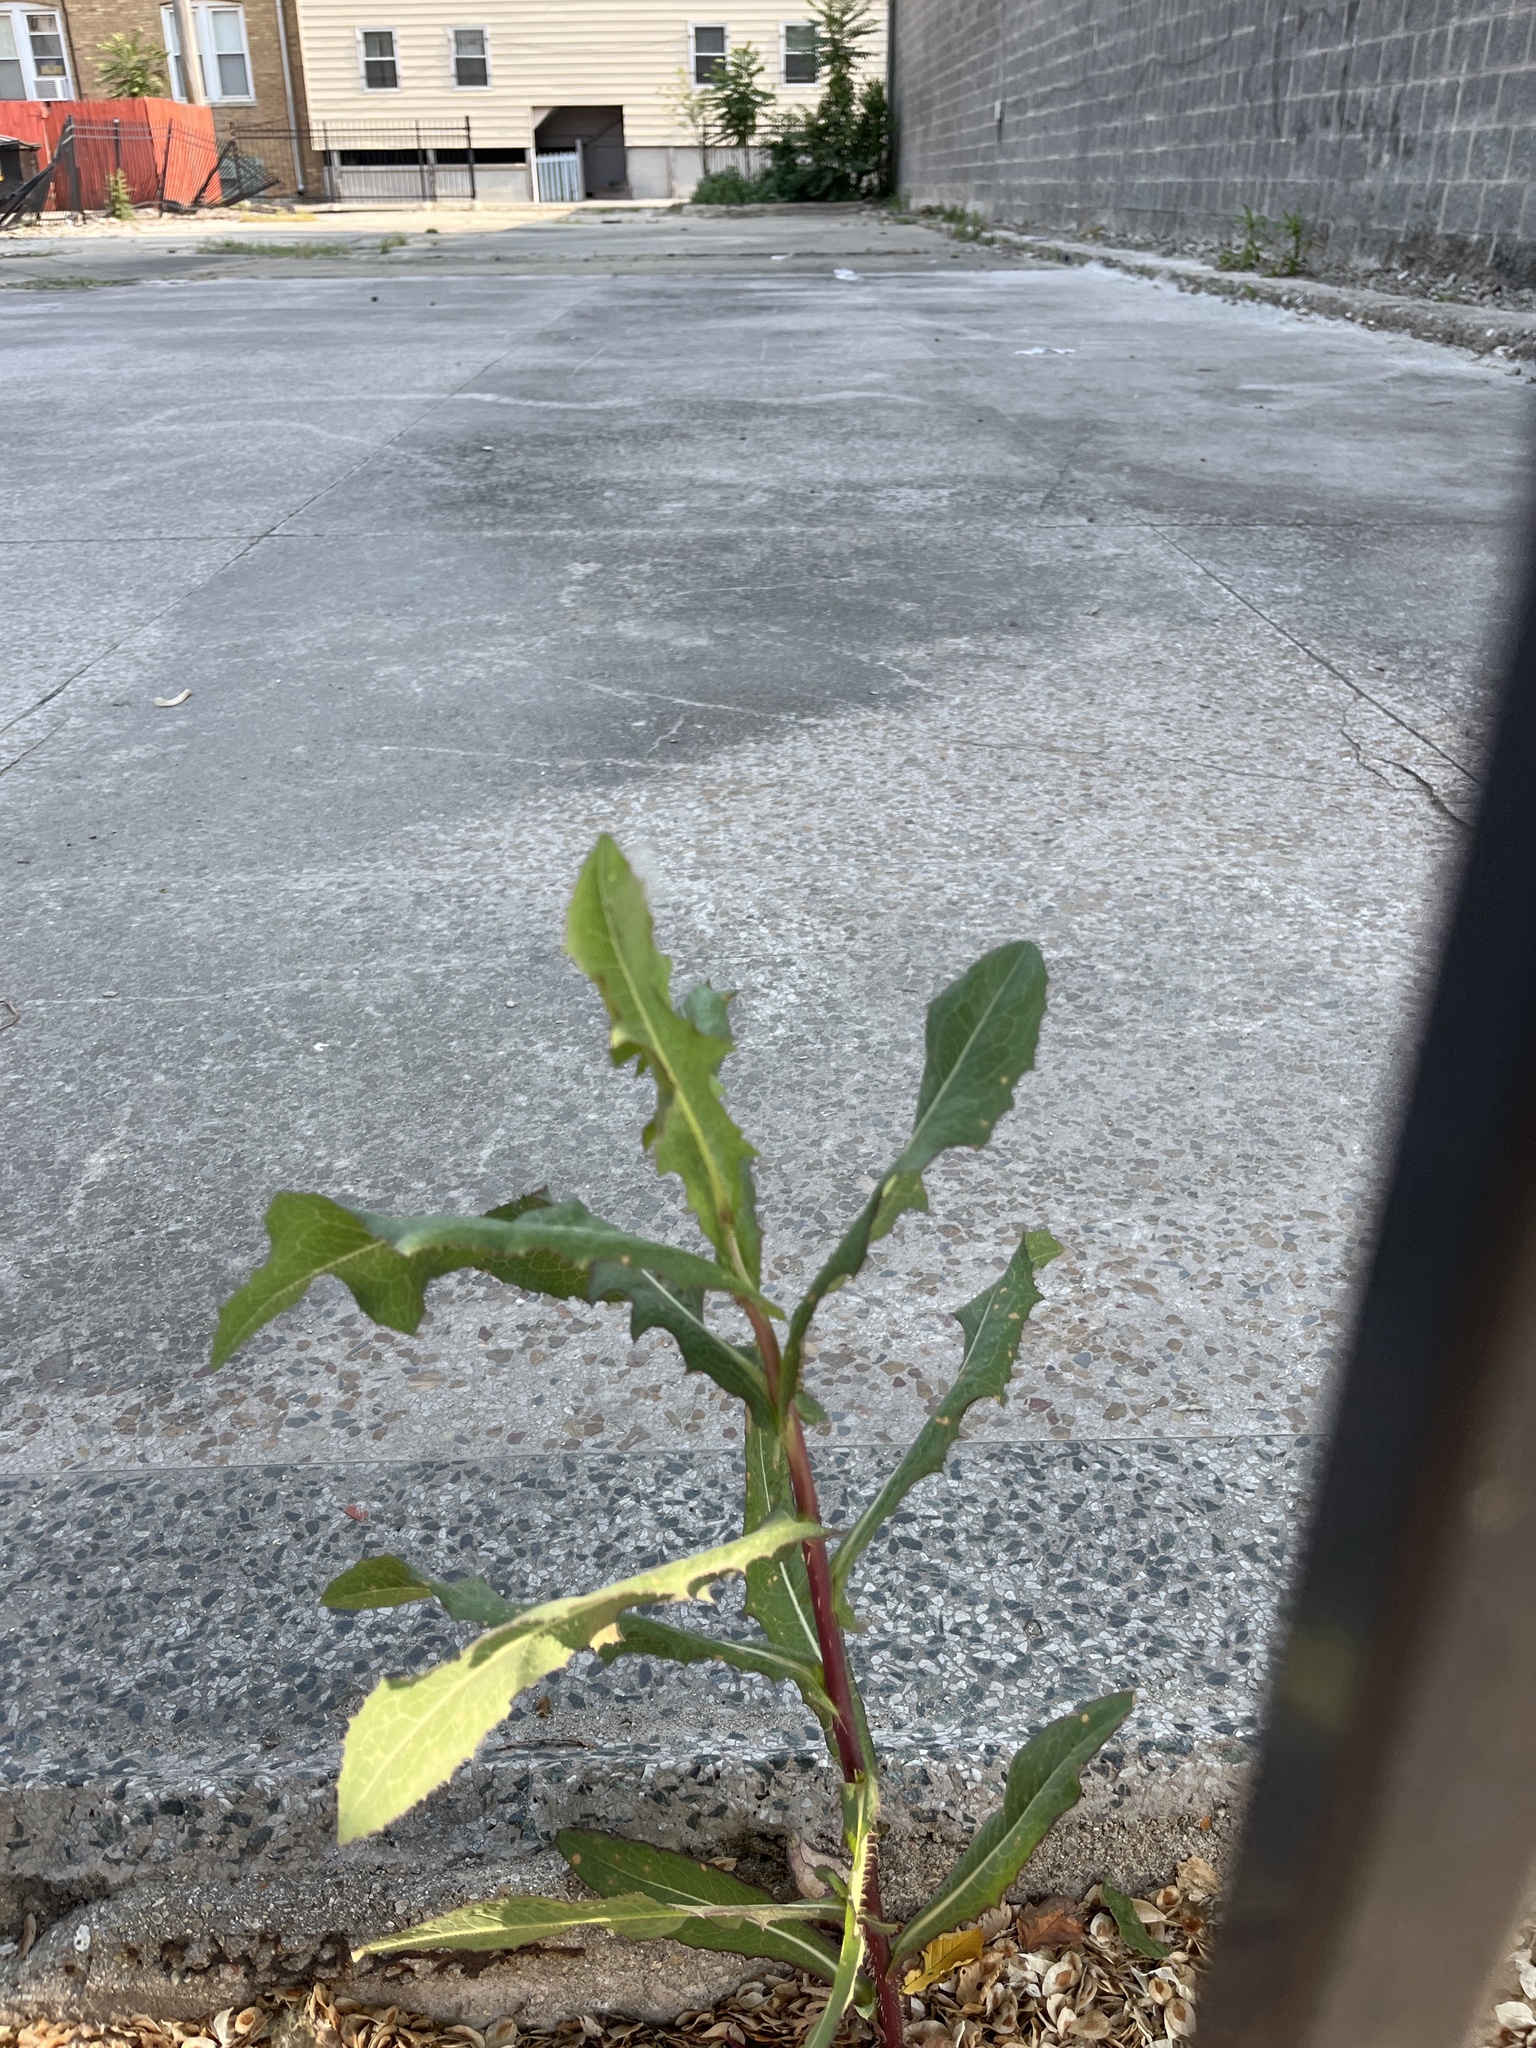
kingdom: Plantae
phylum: Tracheophyta
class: Magnoliopsida
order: Asterales
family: Asteraceae
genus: Lactuca
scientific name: Lactuca serriola
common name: Prickly lettuce
